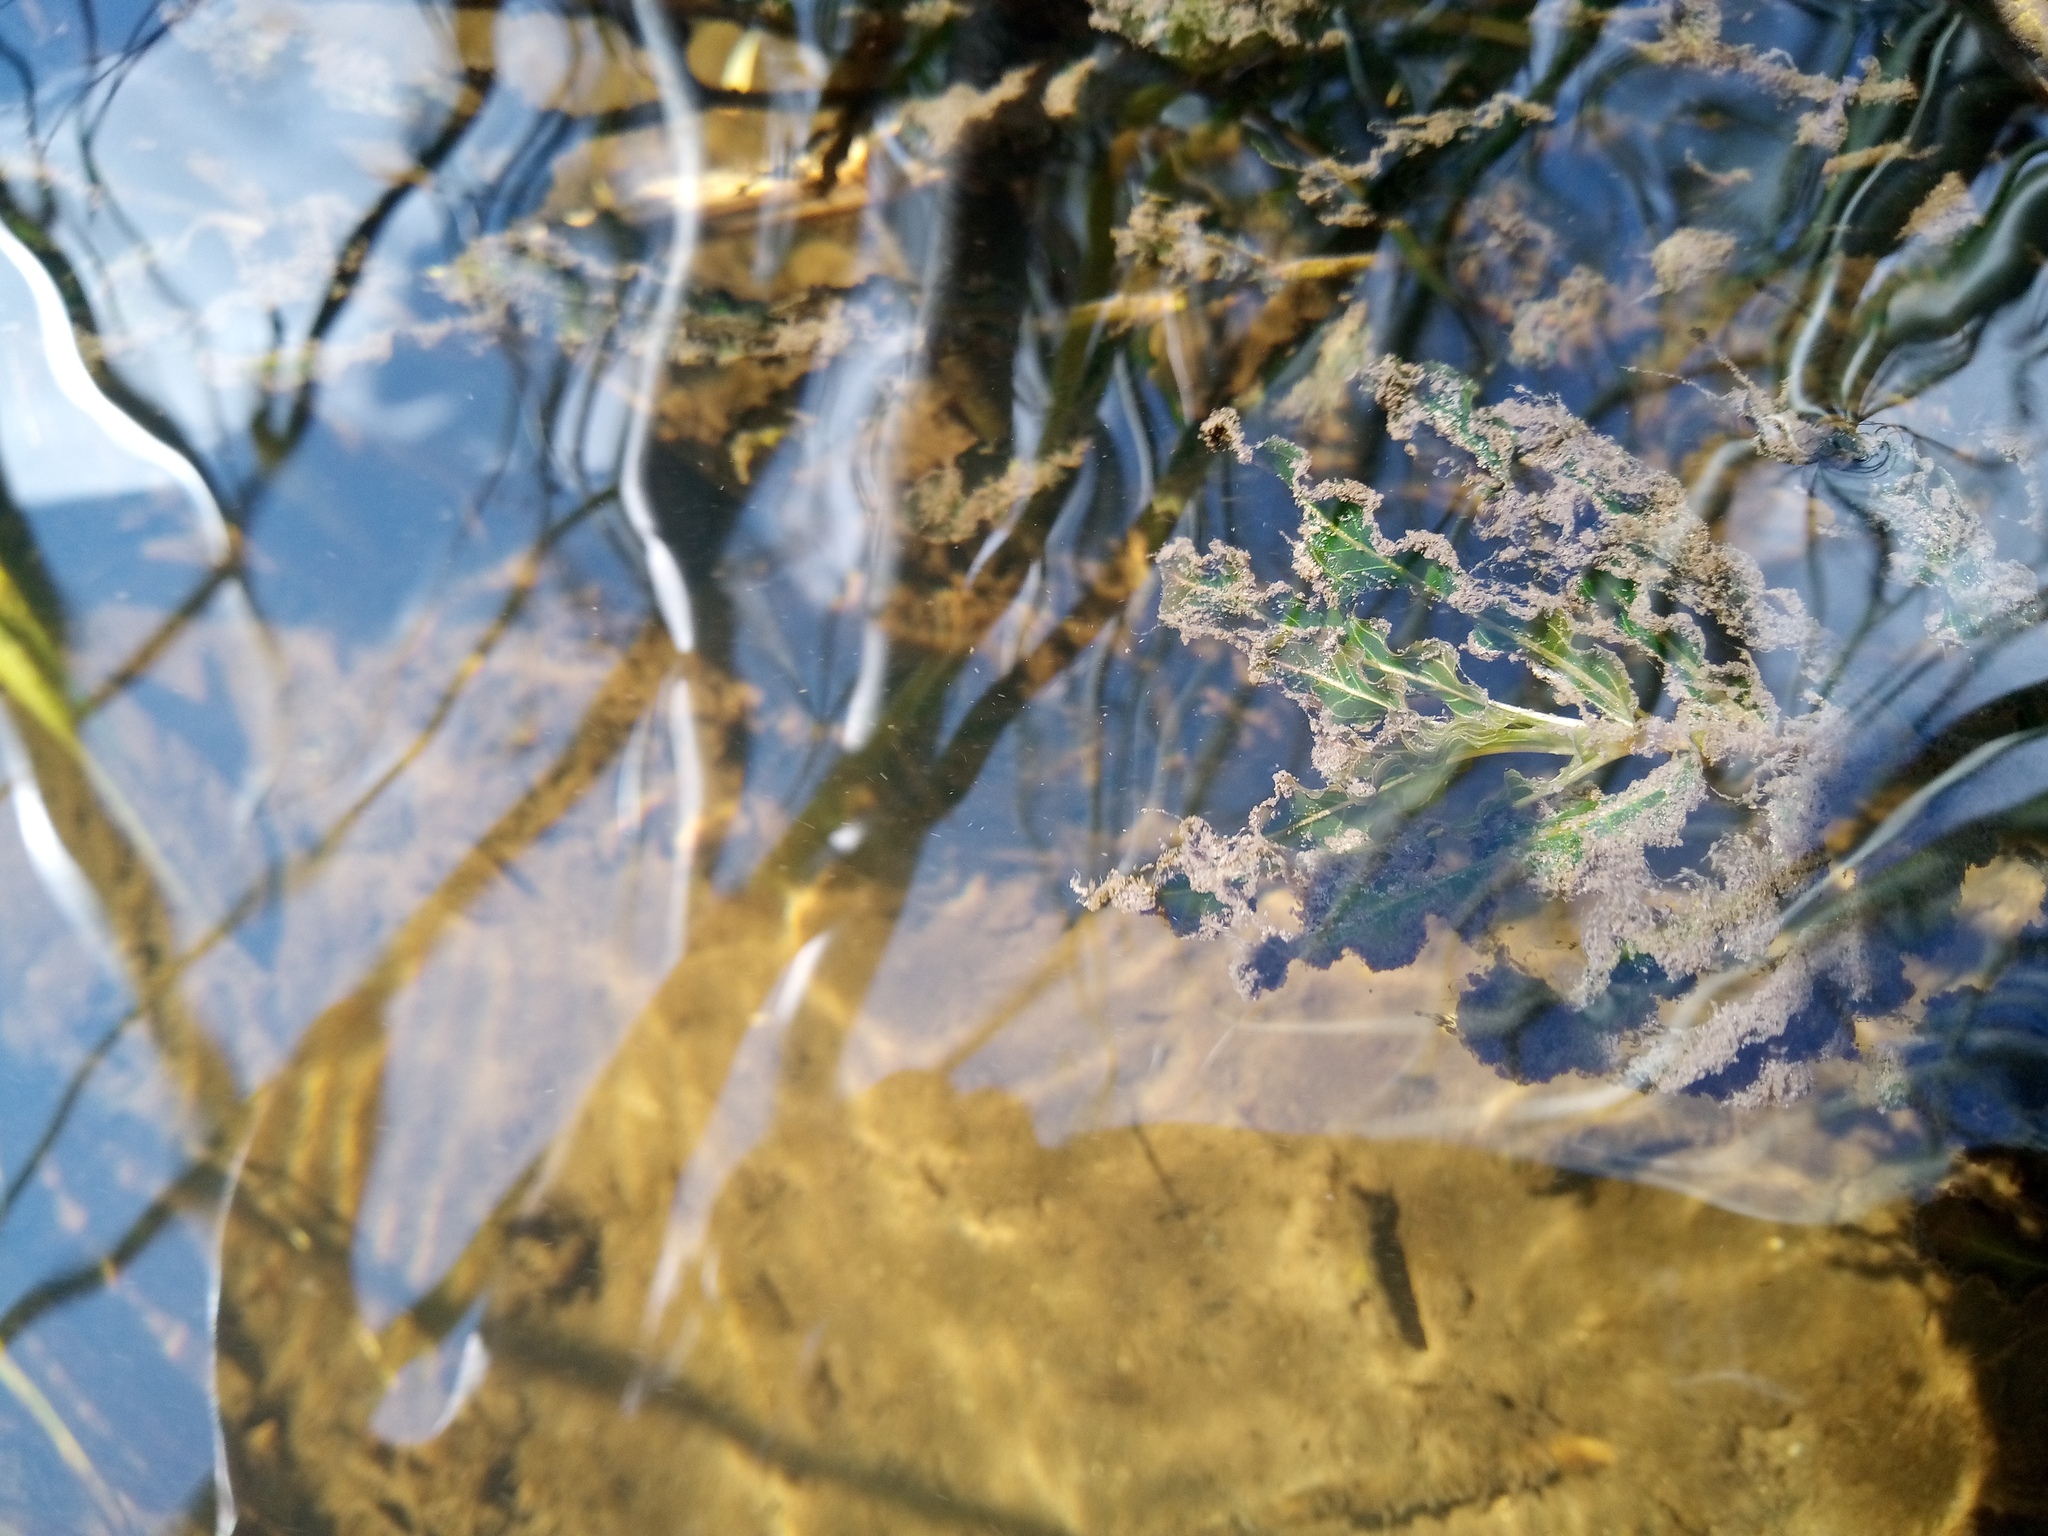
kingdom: Plantae
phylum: Tracheophyta
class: Liliopsida
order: Alismatales
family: Potamogetonaceae
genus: Potamogeton
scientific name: Potamogeton crispus
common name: Curled pondweed
